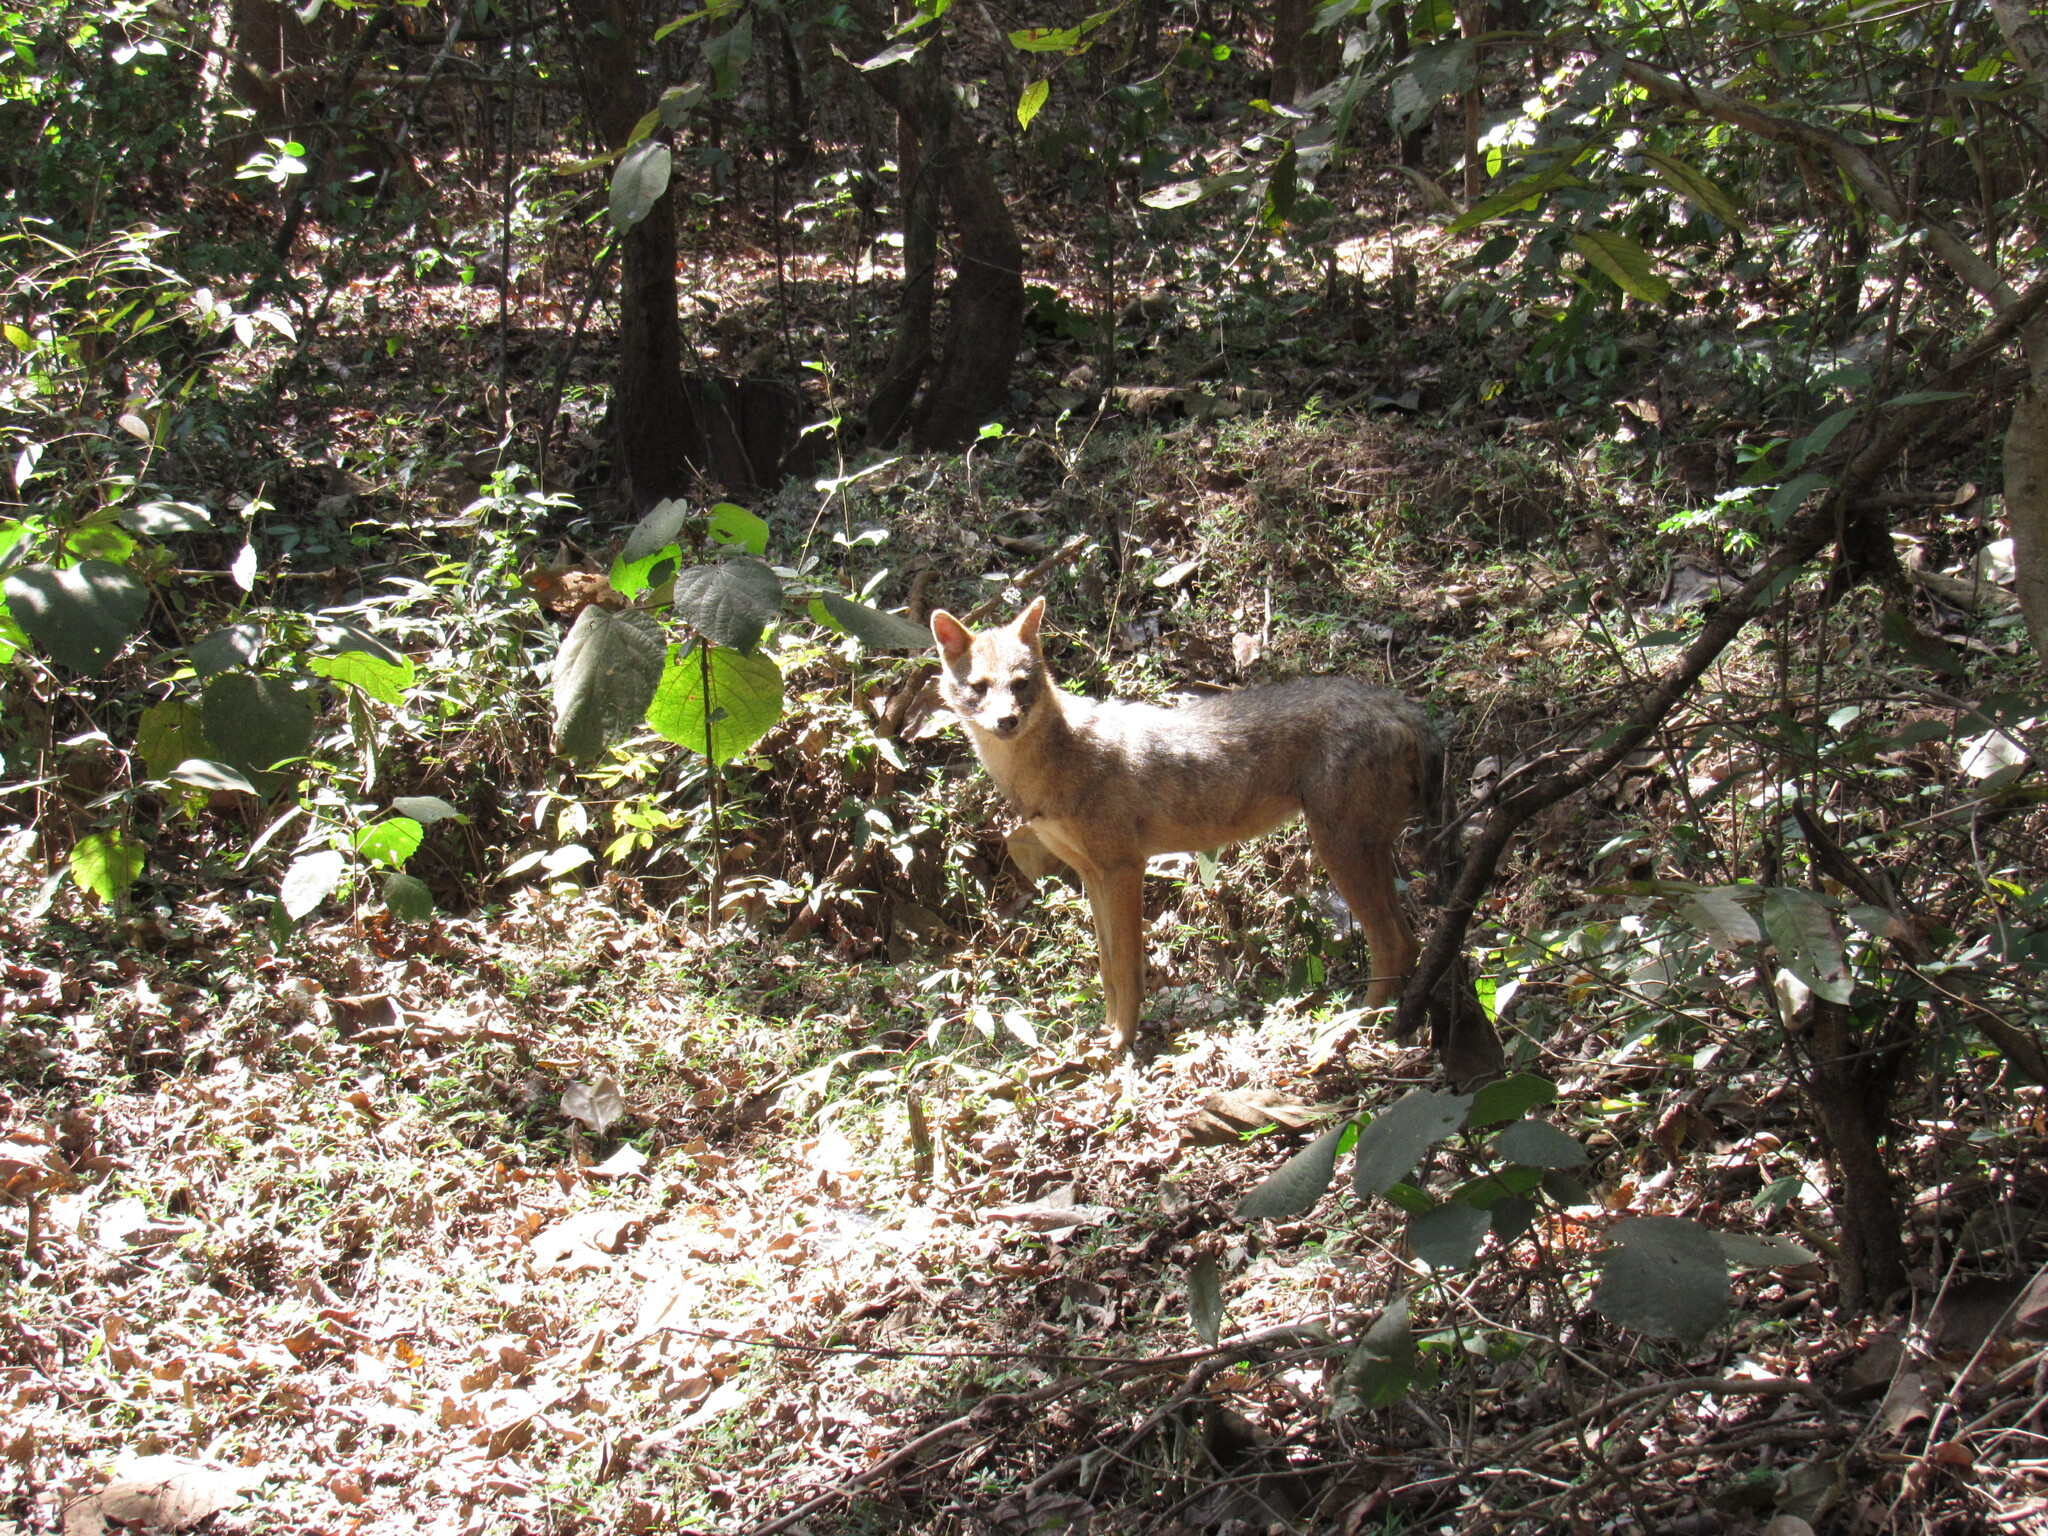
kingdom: Animalia
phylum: Chordata
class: Mammalia
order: Carnivora
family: Canidae
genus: Canis
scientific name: Canis aureus
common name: Golden jackal
